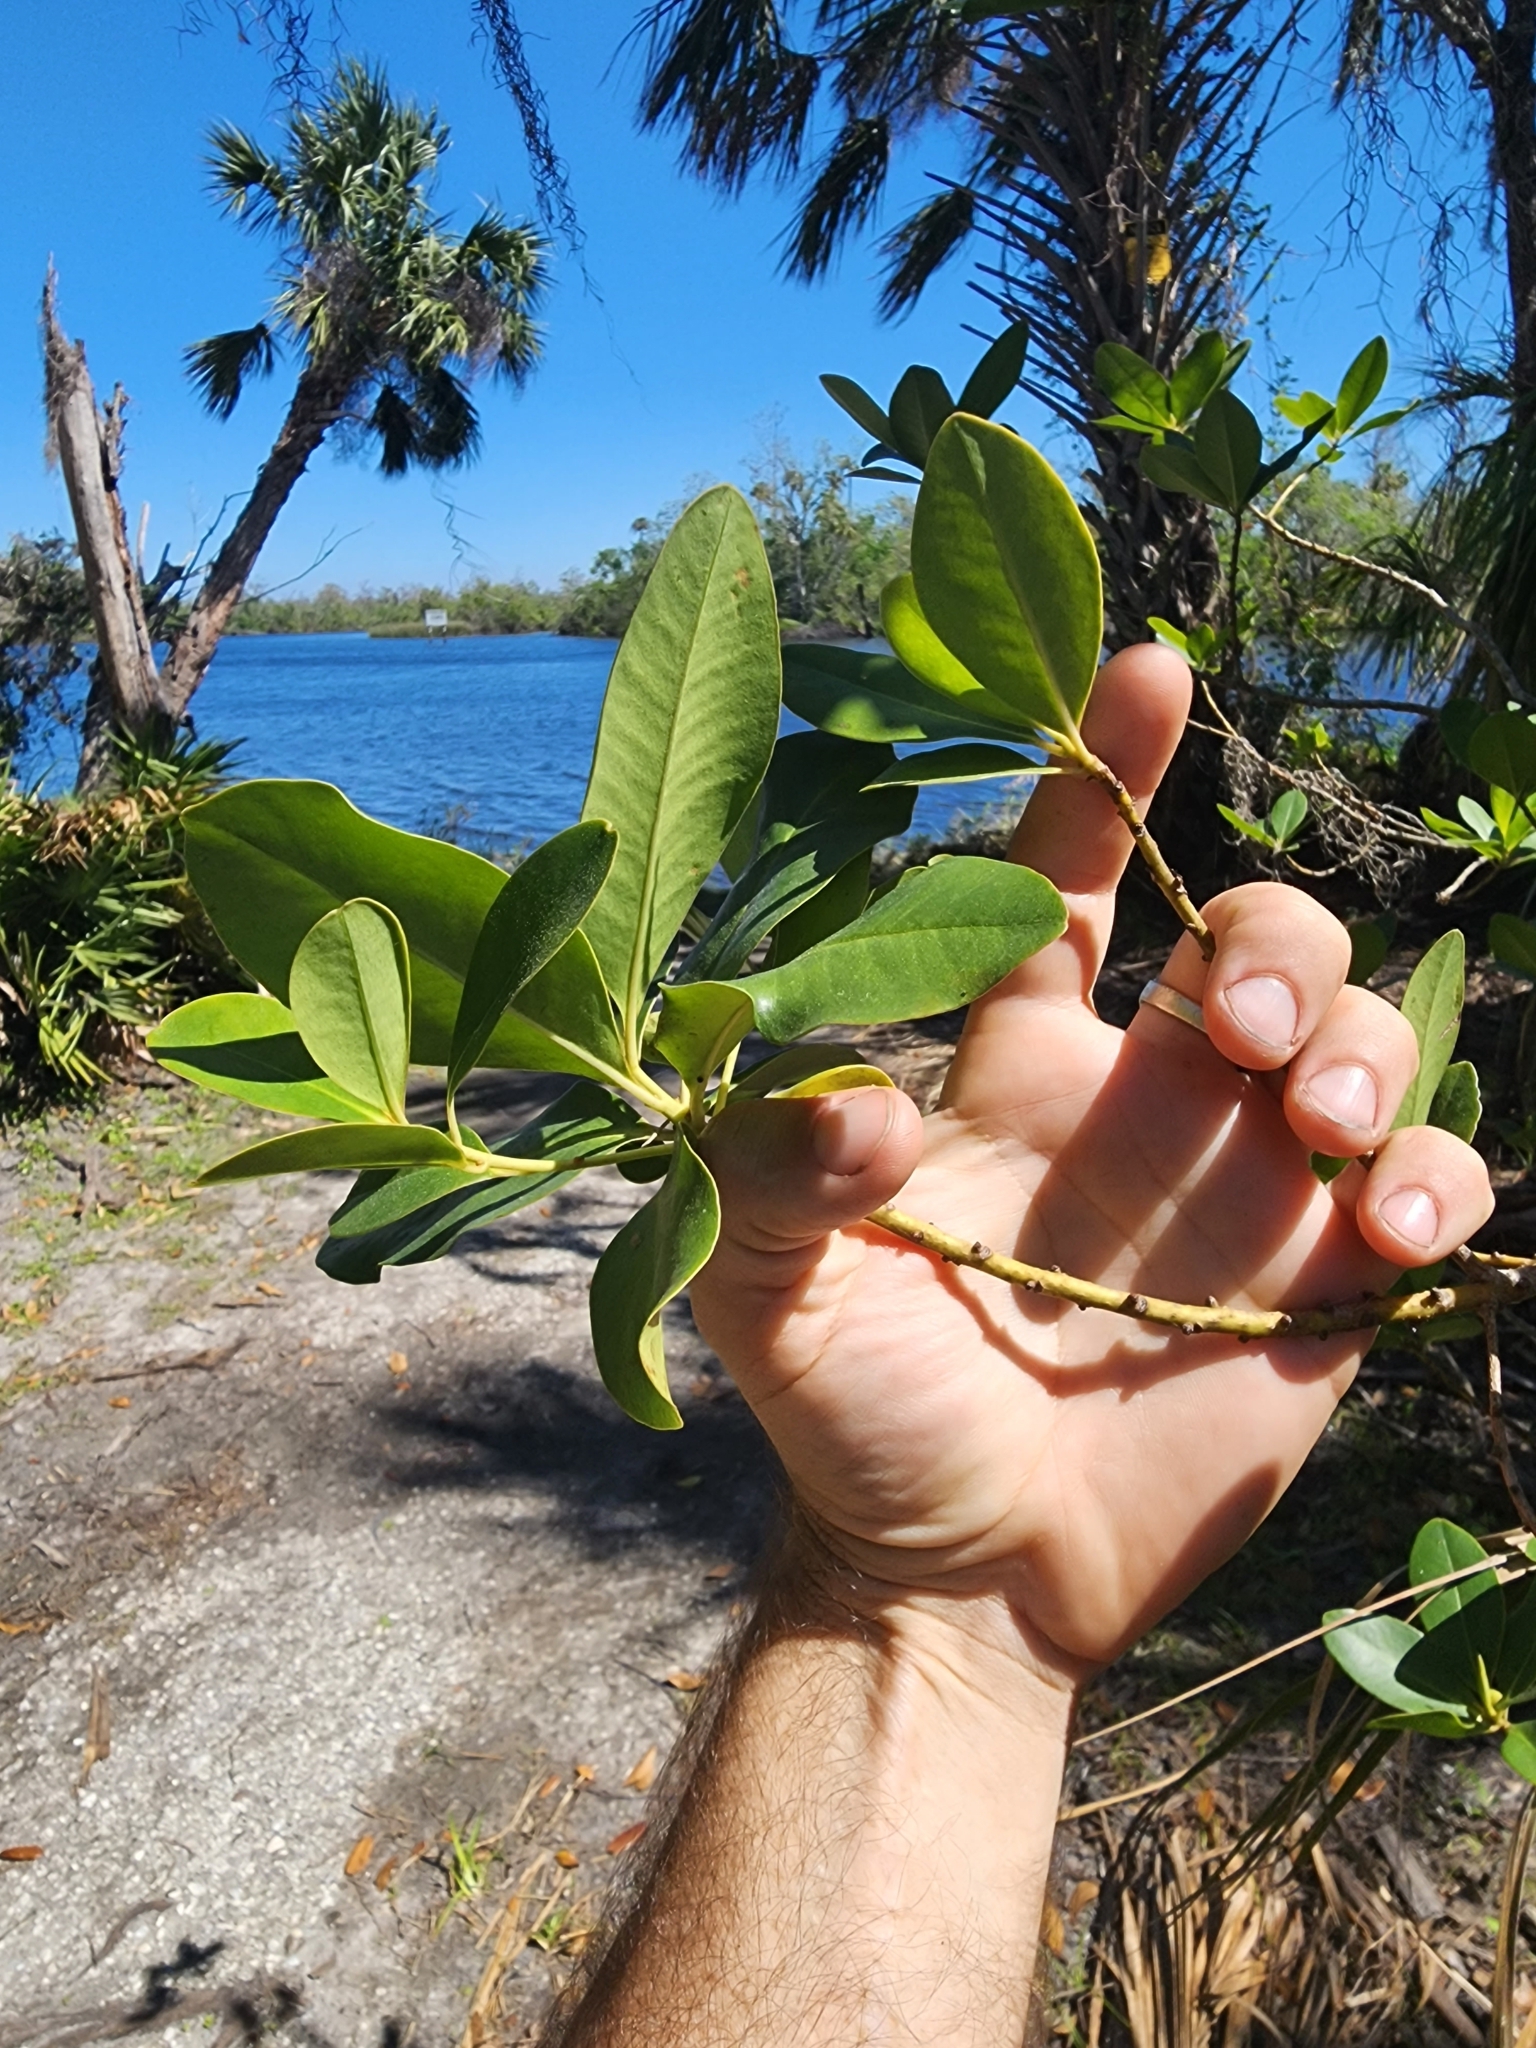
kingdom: Plantae
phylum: Tracheophyta
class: Magnoliopsida
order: Ericales
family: Primulaceae
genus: Myrsine
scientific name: Myrsine floridana
